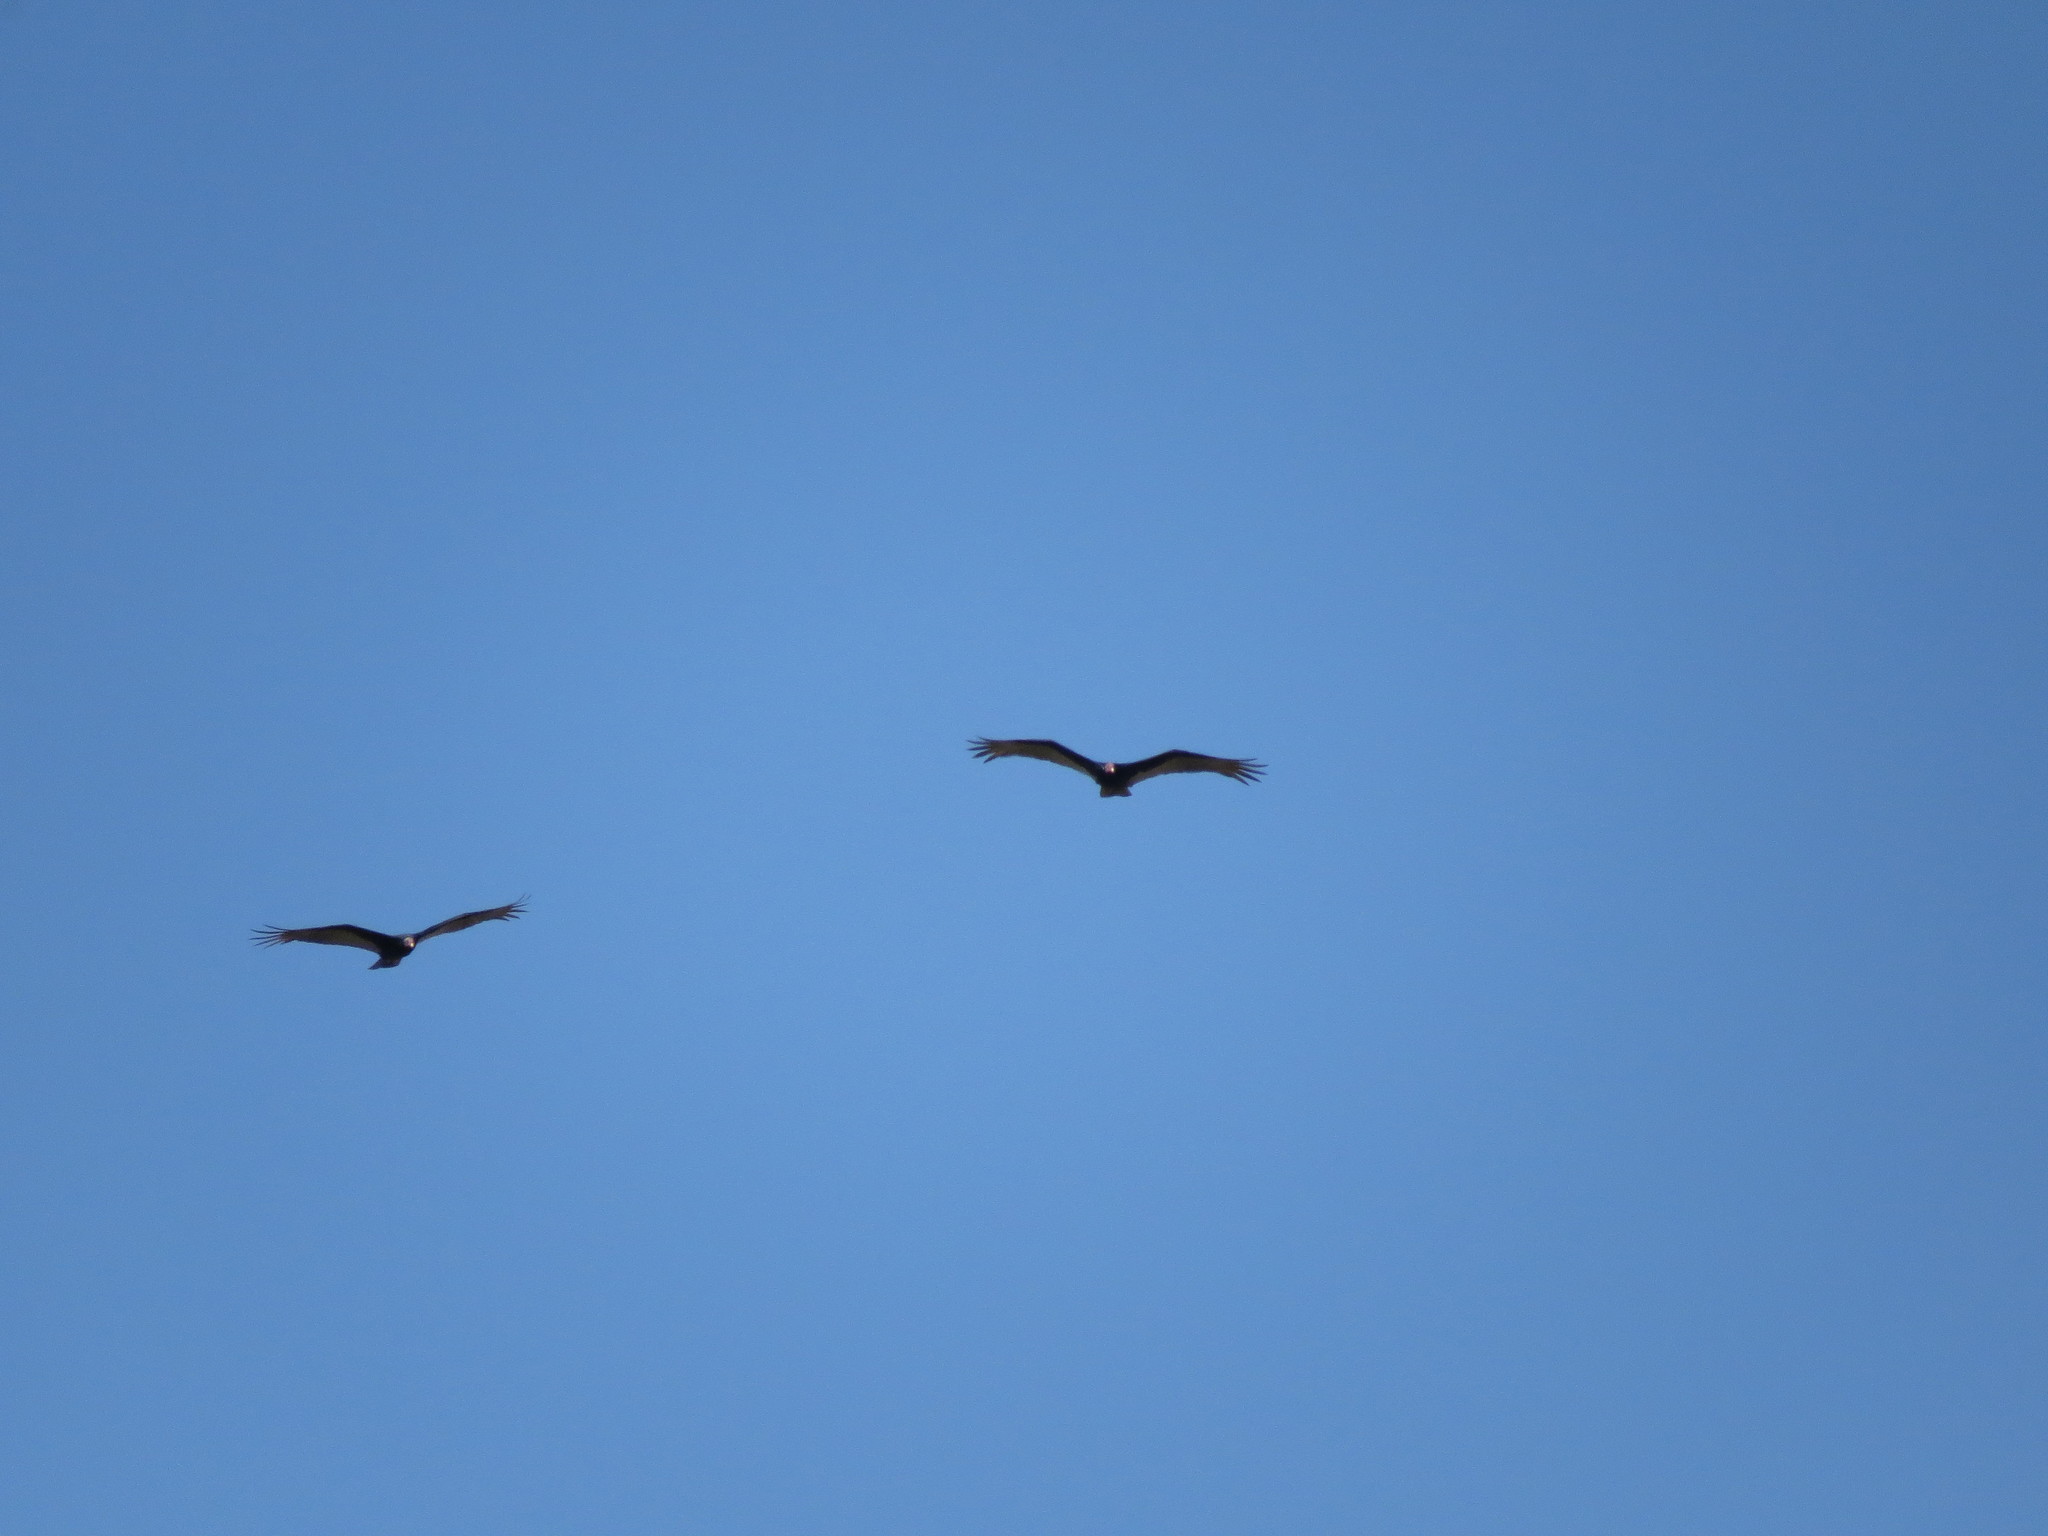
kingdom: Animalia
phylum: Chordata
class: Aves
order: Accipitriformes
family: Cathartidae
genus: Cathartes
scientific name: Cathartes aura
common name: Turkey vulture
